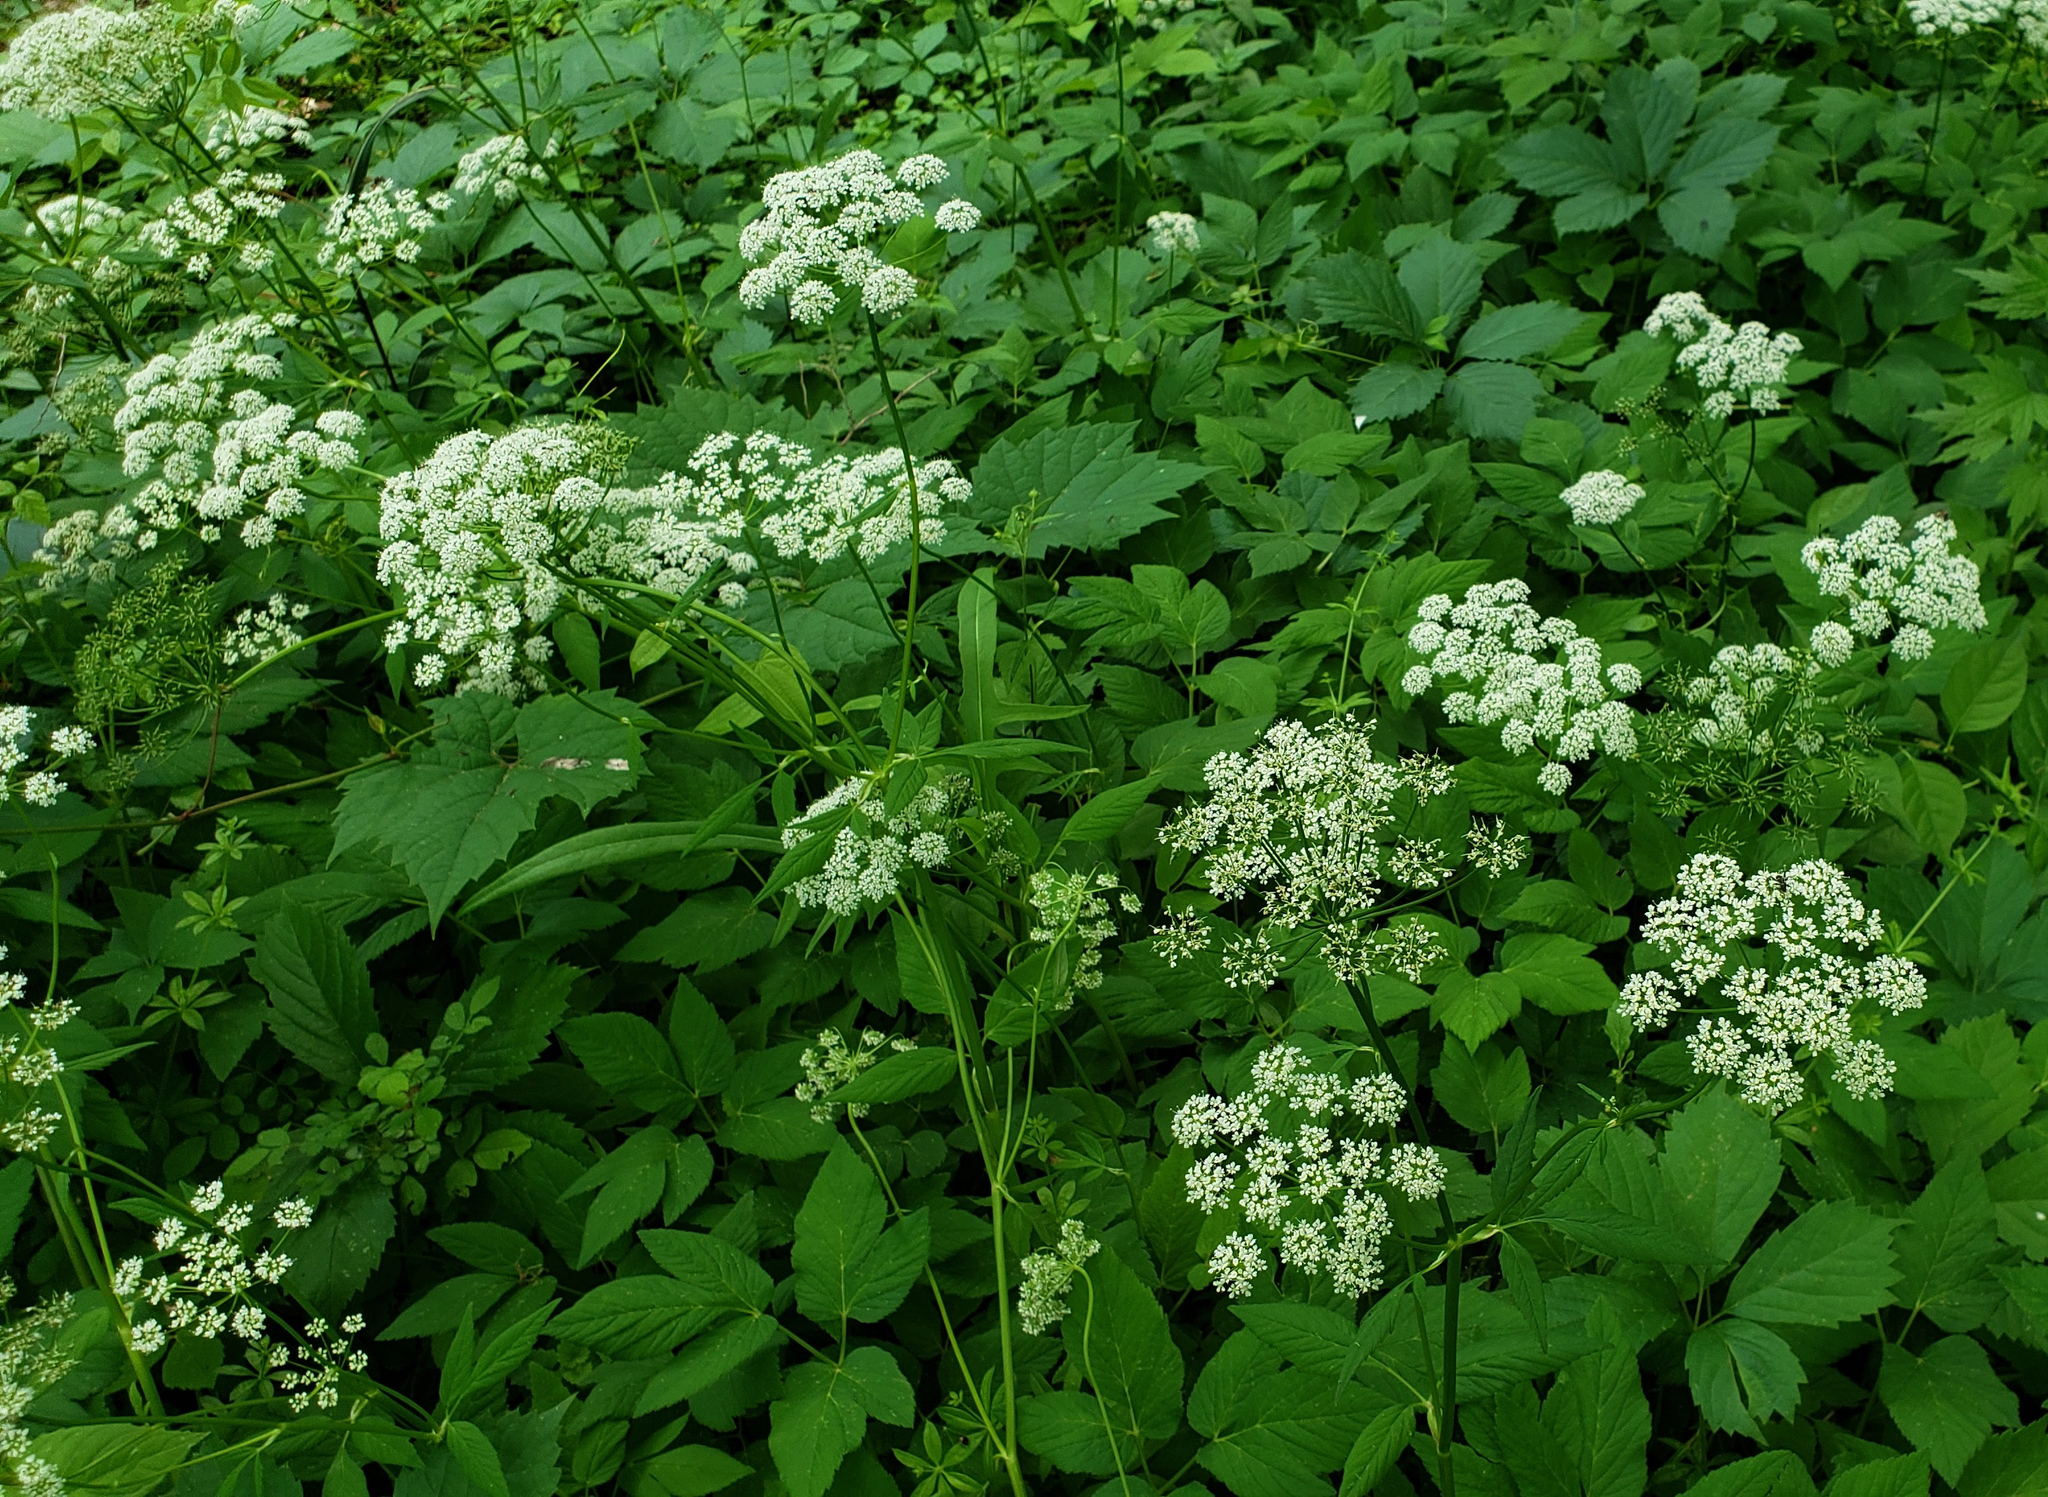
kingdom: Plantae
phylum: Tracheophyta
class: Magnoliopsida
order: Apiales
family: Apiaceae
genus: Aegopodium
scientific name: Aegopodium podagraria
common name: Ground-elder
